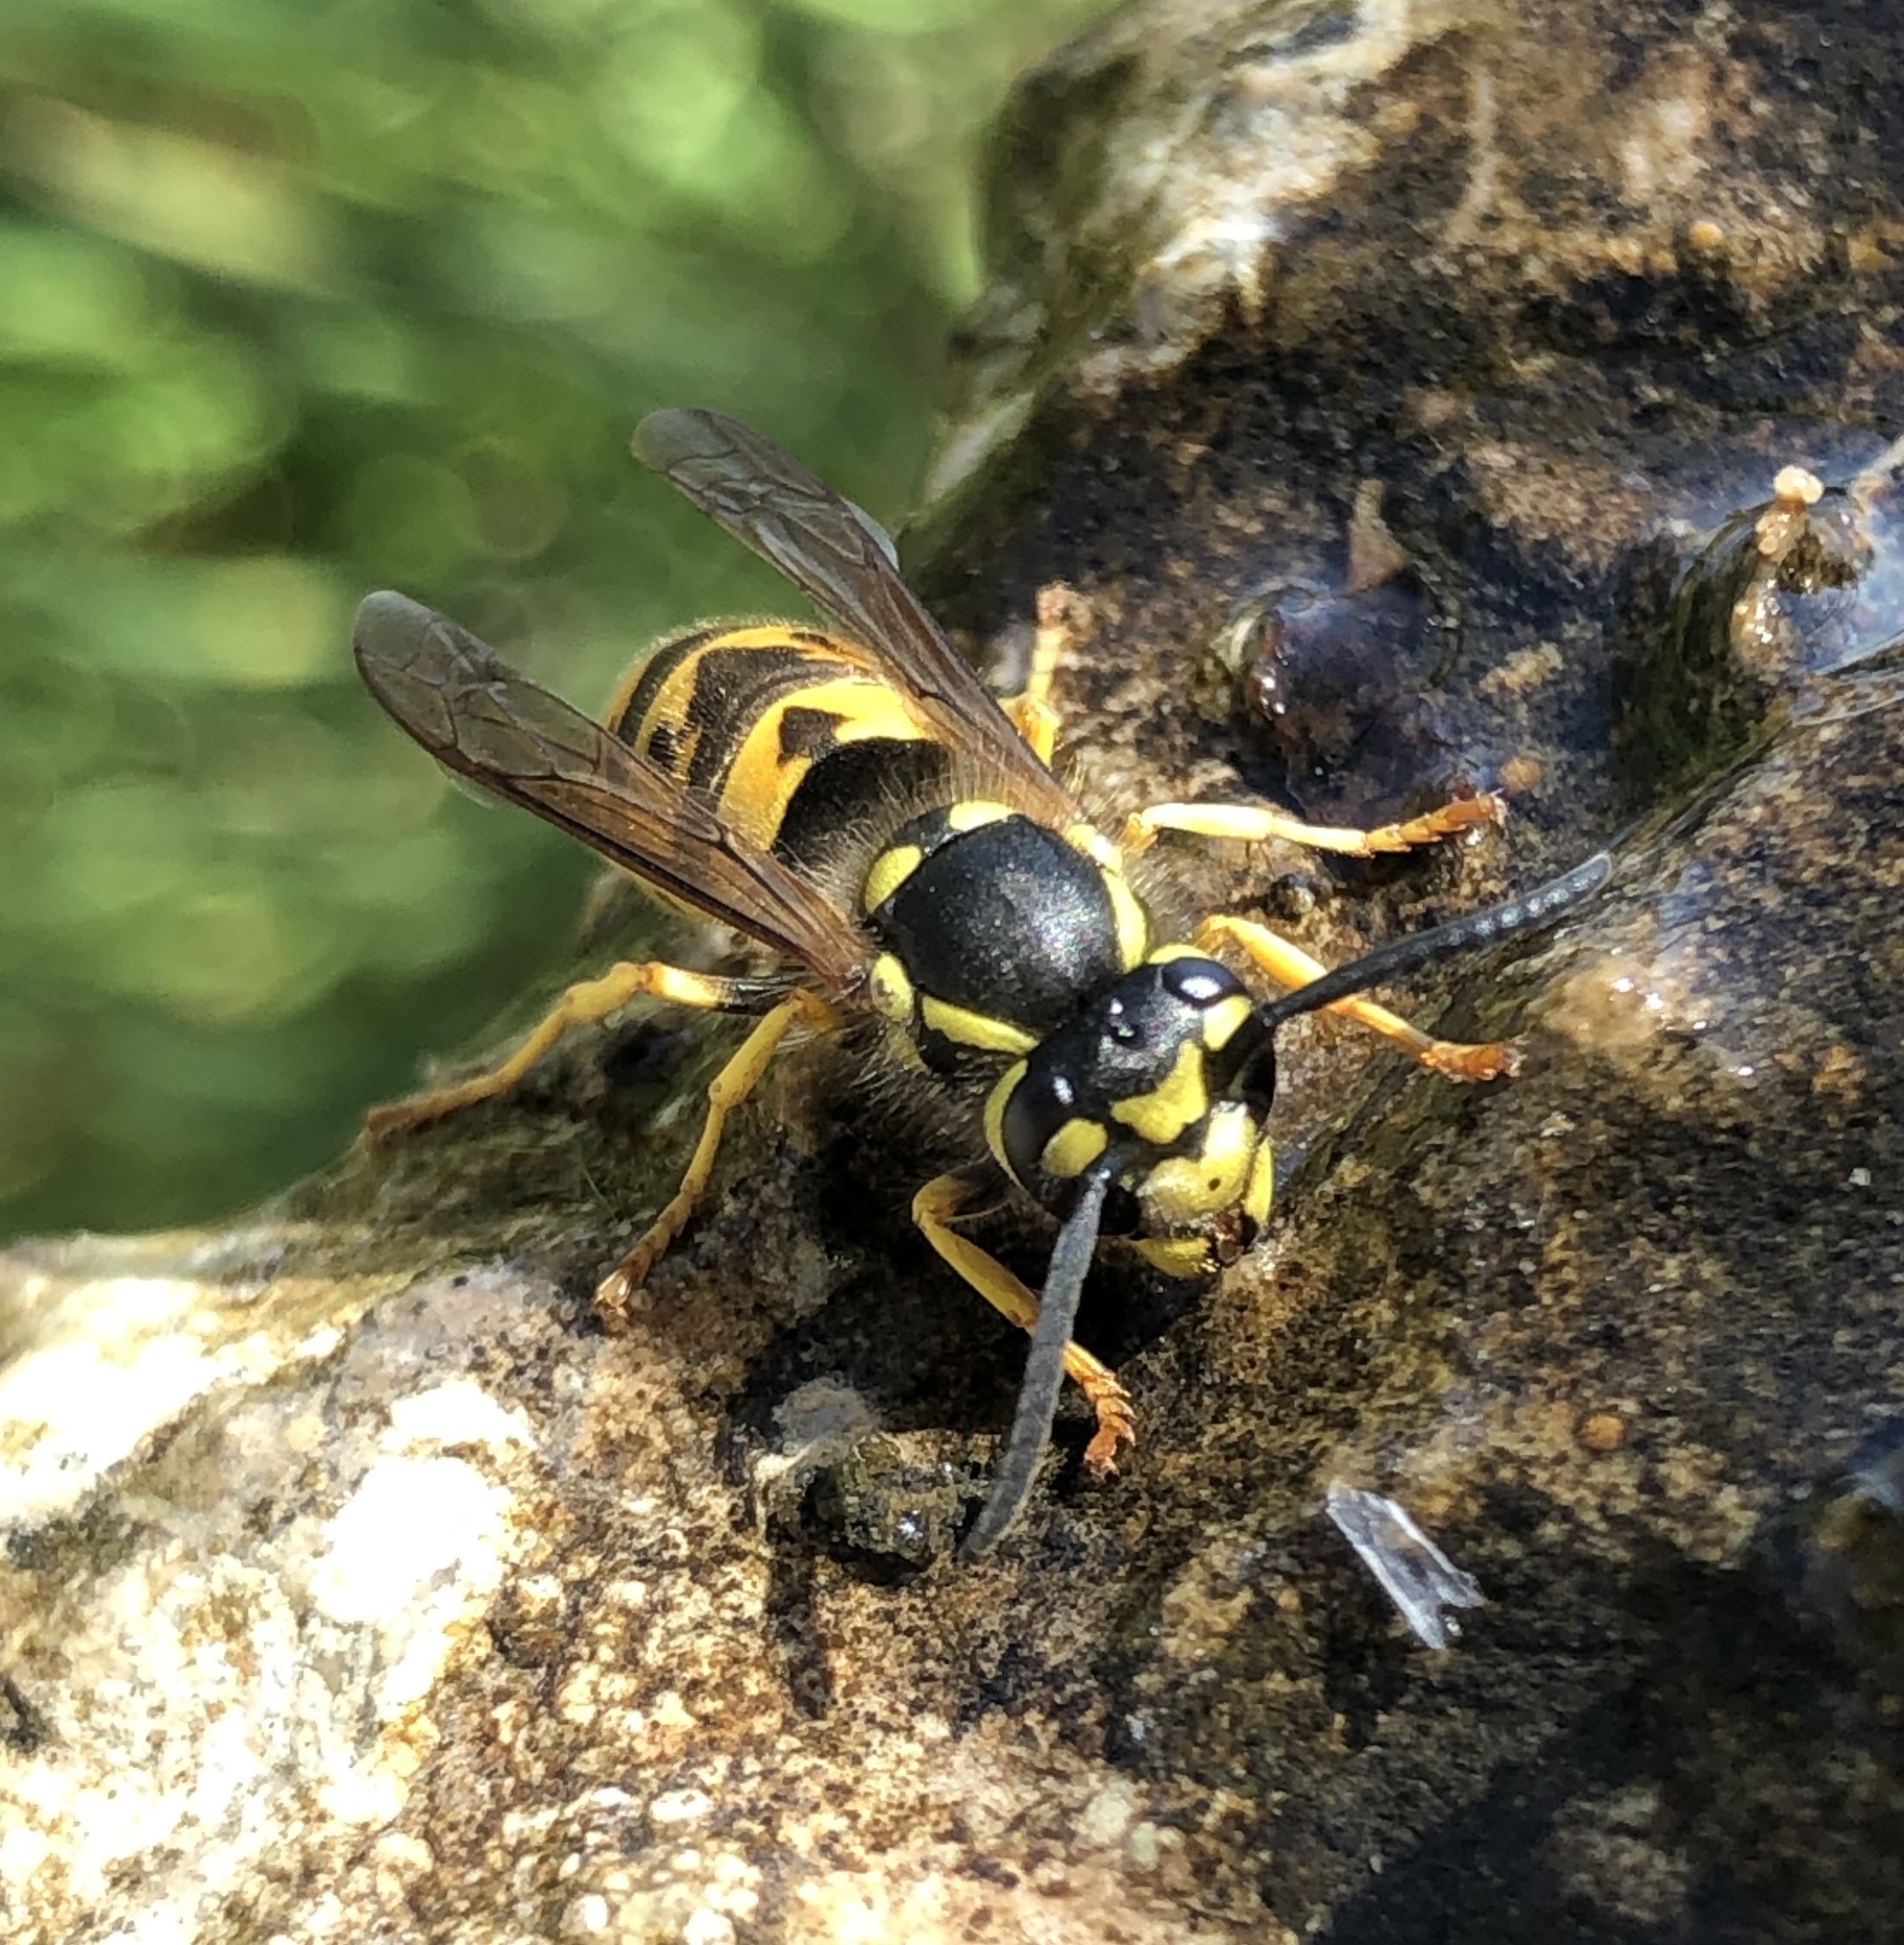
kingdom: Animalia
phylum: Arthropoda
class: Insecta
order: Hymenoptera
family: Vespidae
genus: Vespula
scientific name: Vespula germanica
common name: German wasp
